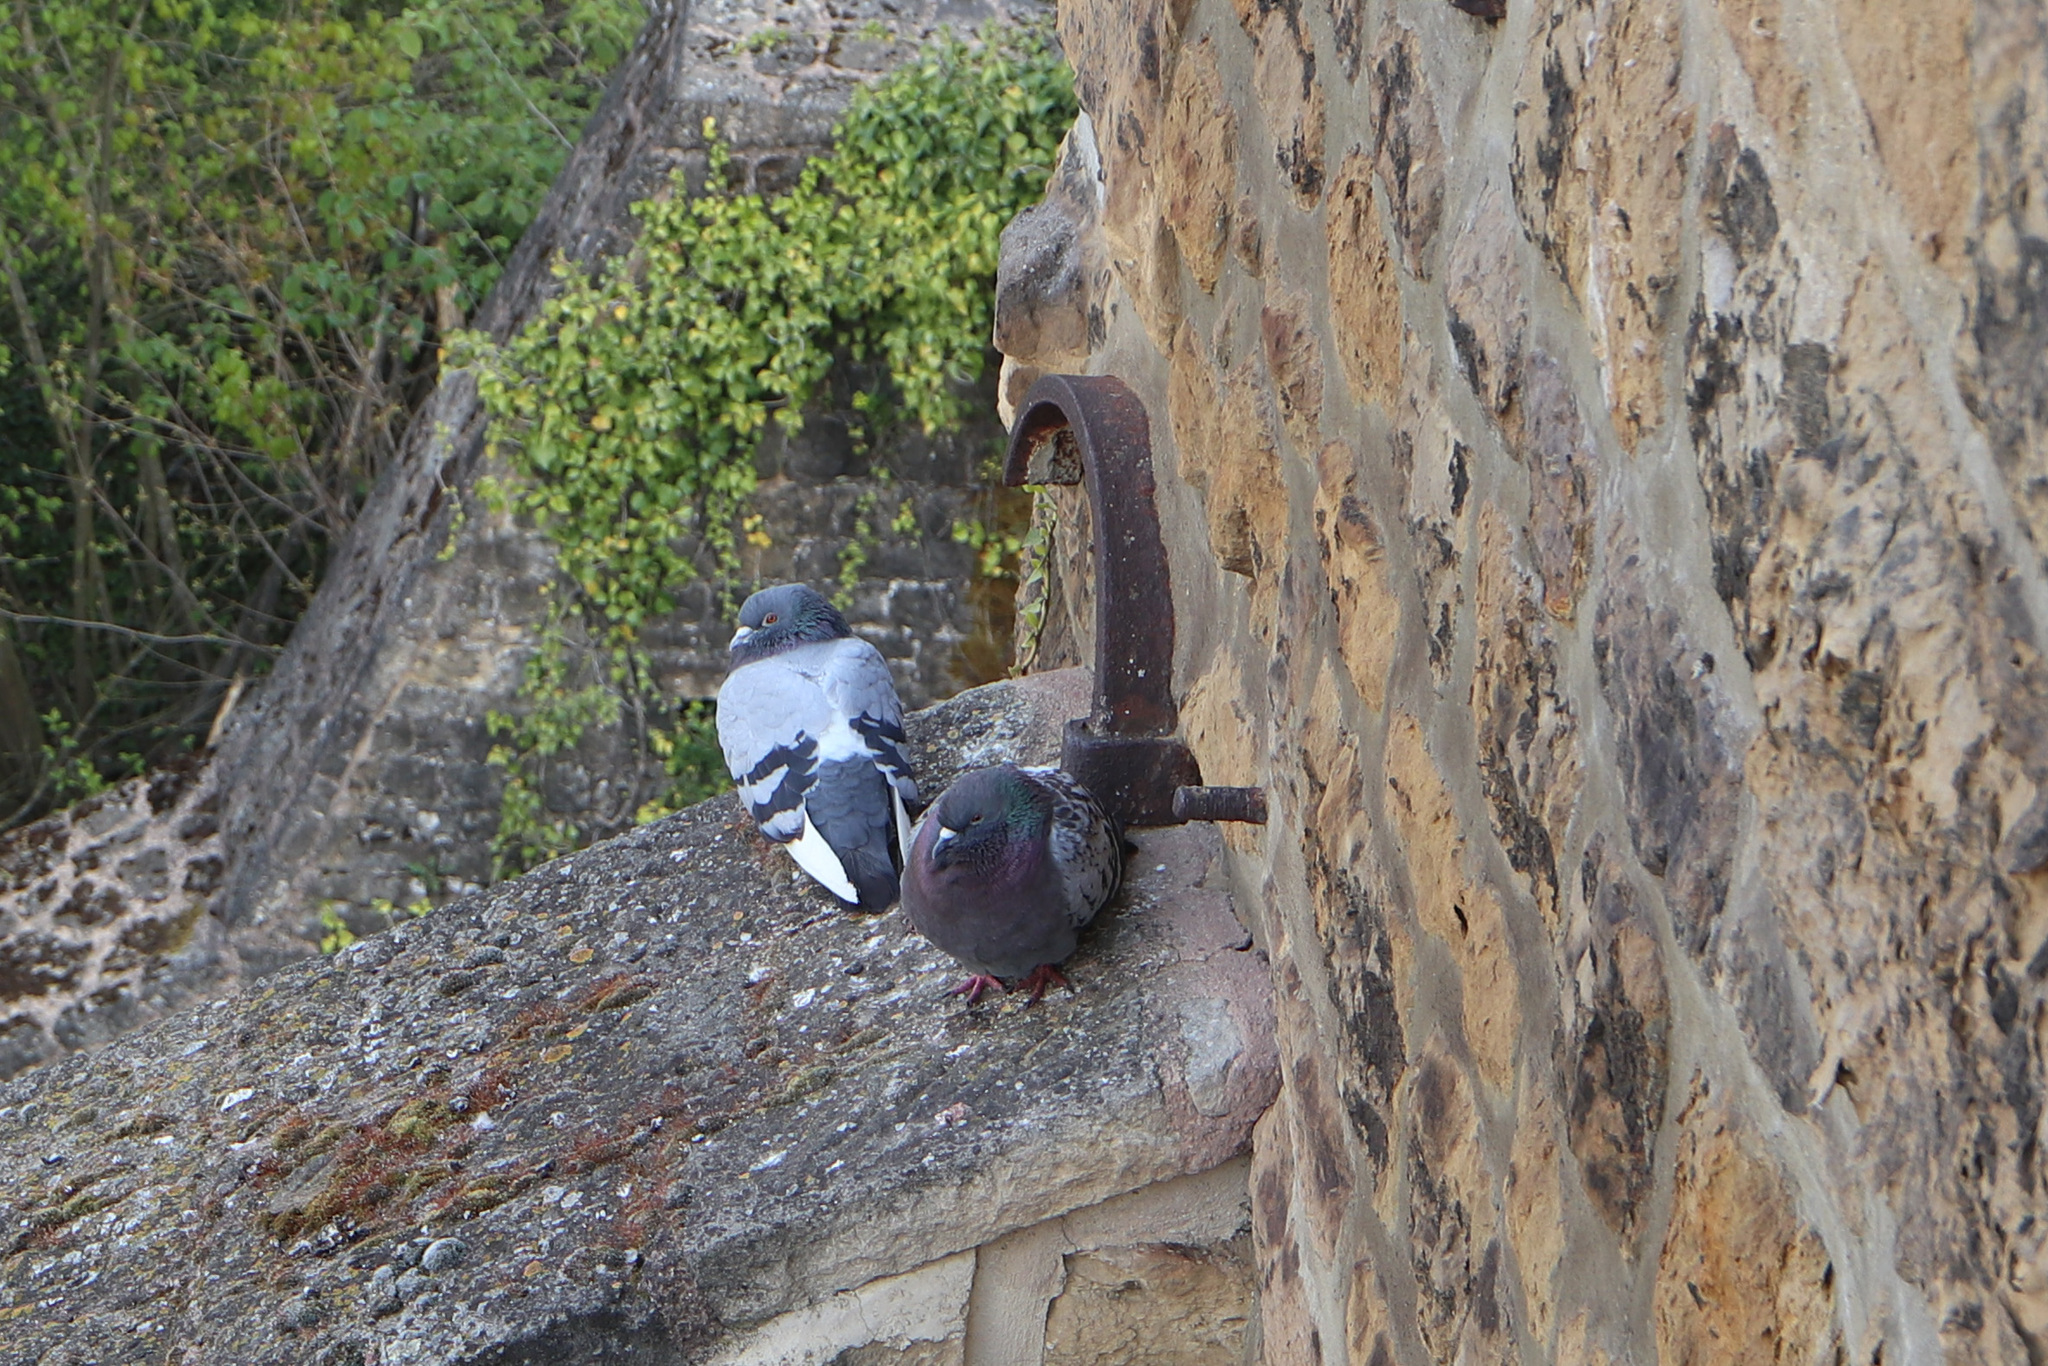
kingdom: Animalia
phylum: Chordata
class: Aves
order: Columbiformes
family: Columbidae
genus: Columba
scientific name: Columba livia
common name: Rock pigeon
